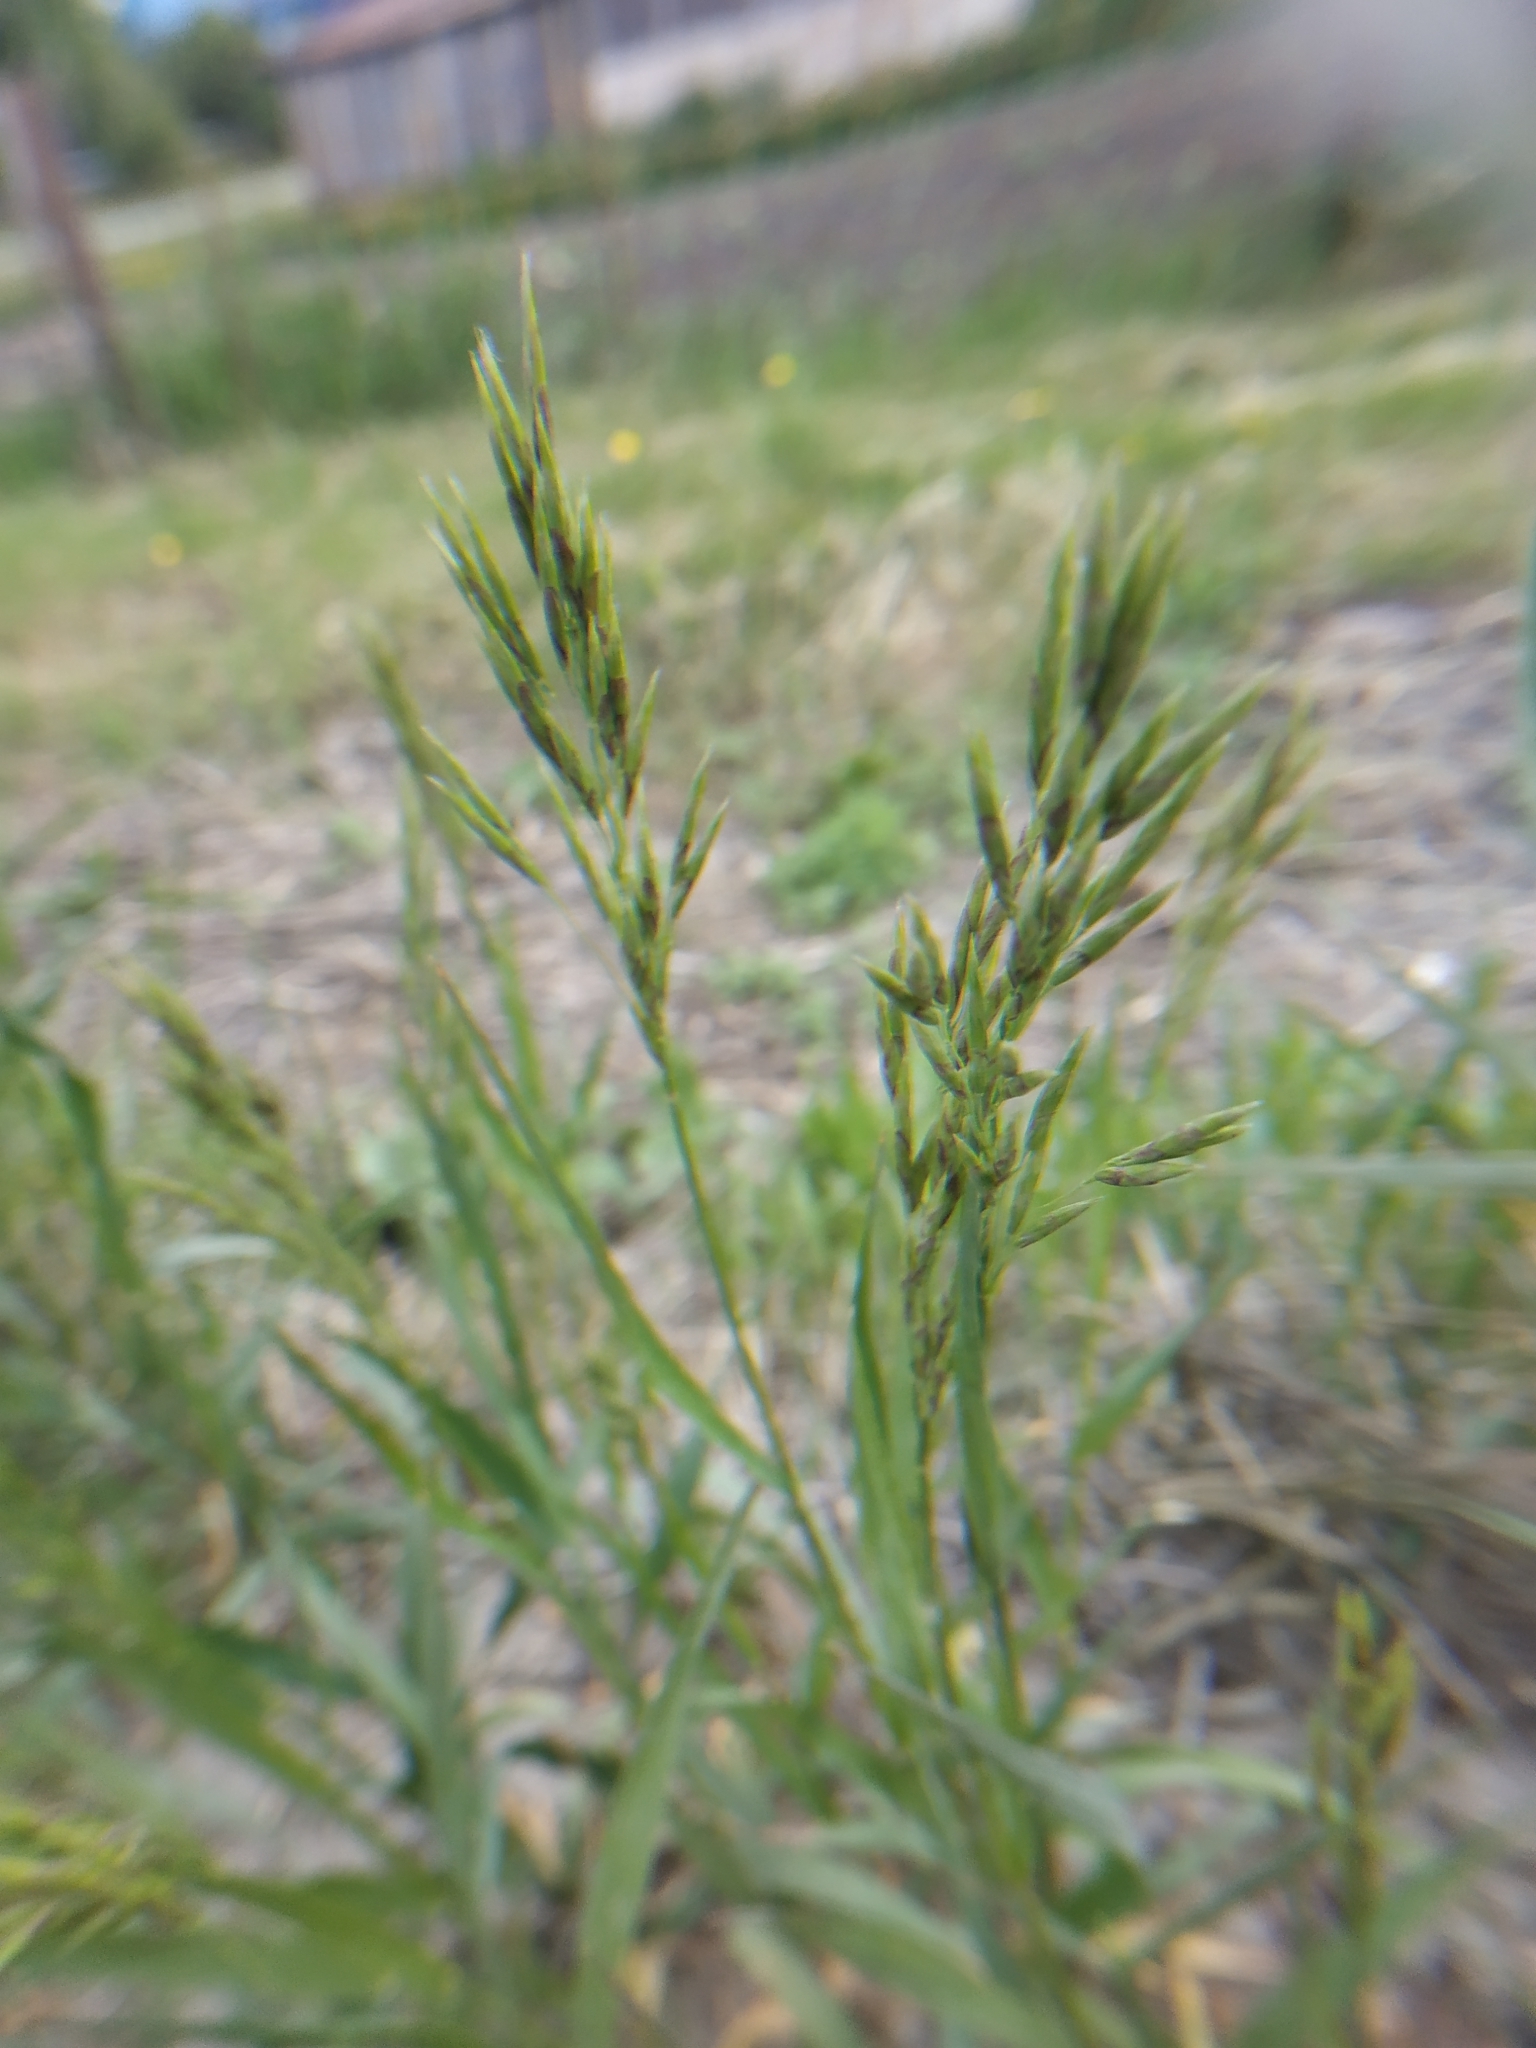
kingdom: Plantae
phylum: Tracheophyta
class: Liliopsida
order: Poales
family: Poaceae
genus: Bromus
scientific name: Bromus inermis
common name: Smooth brome
